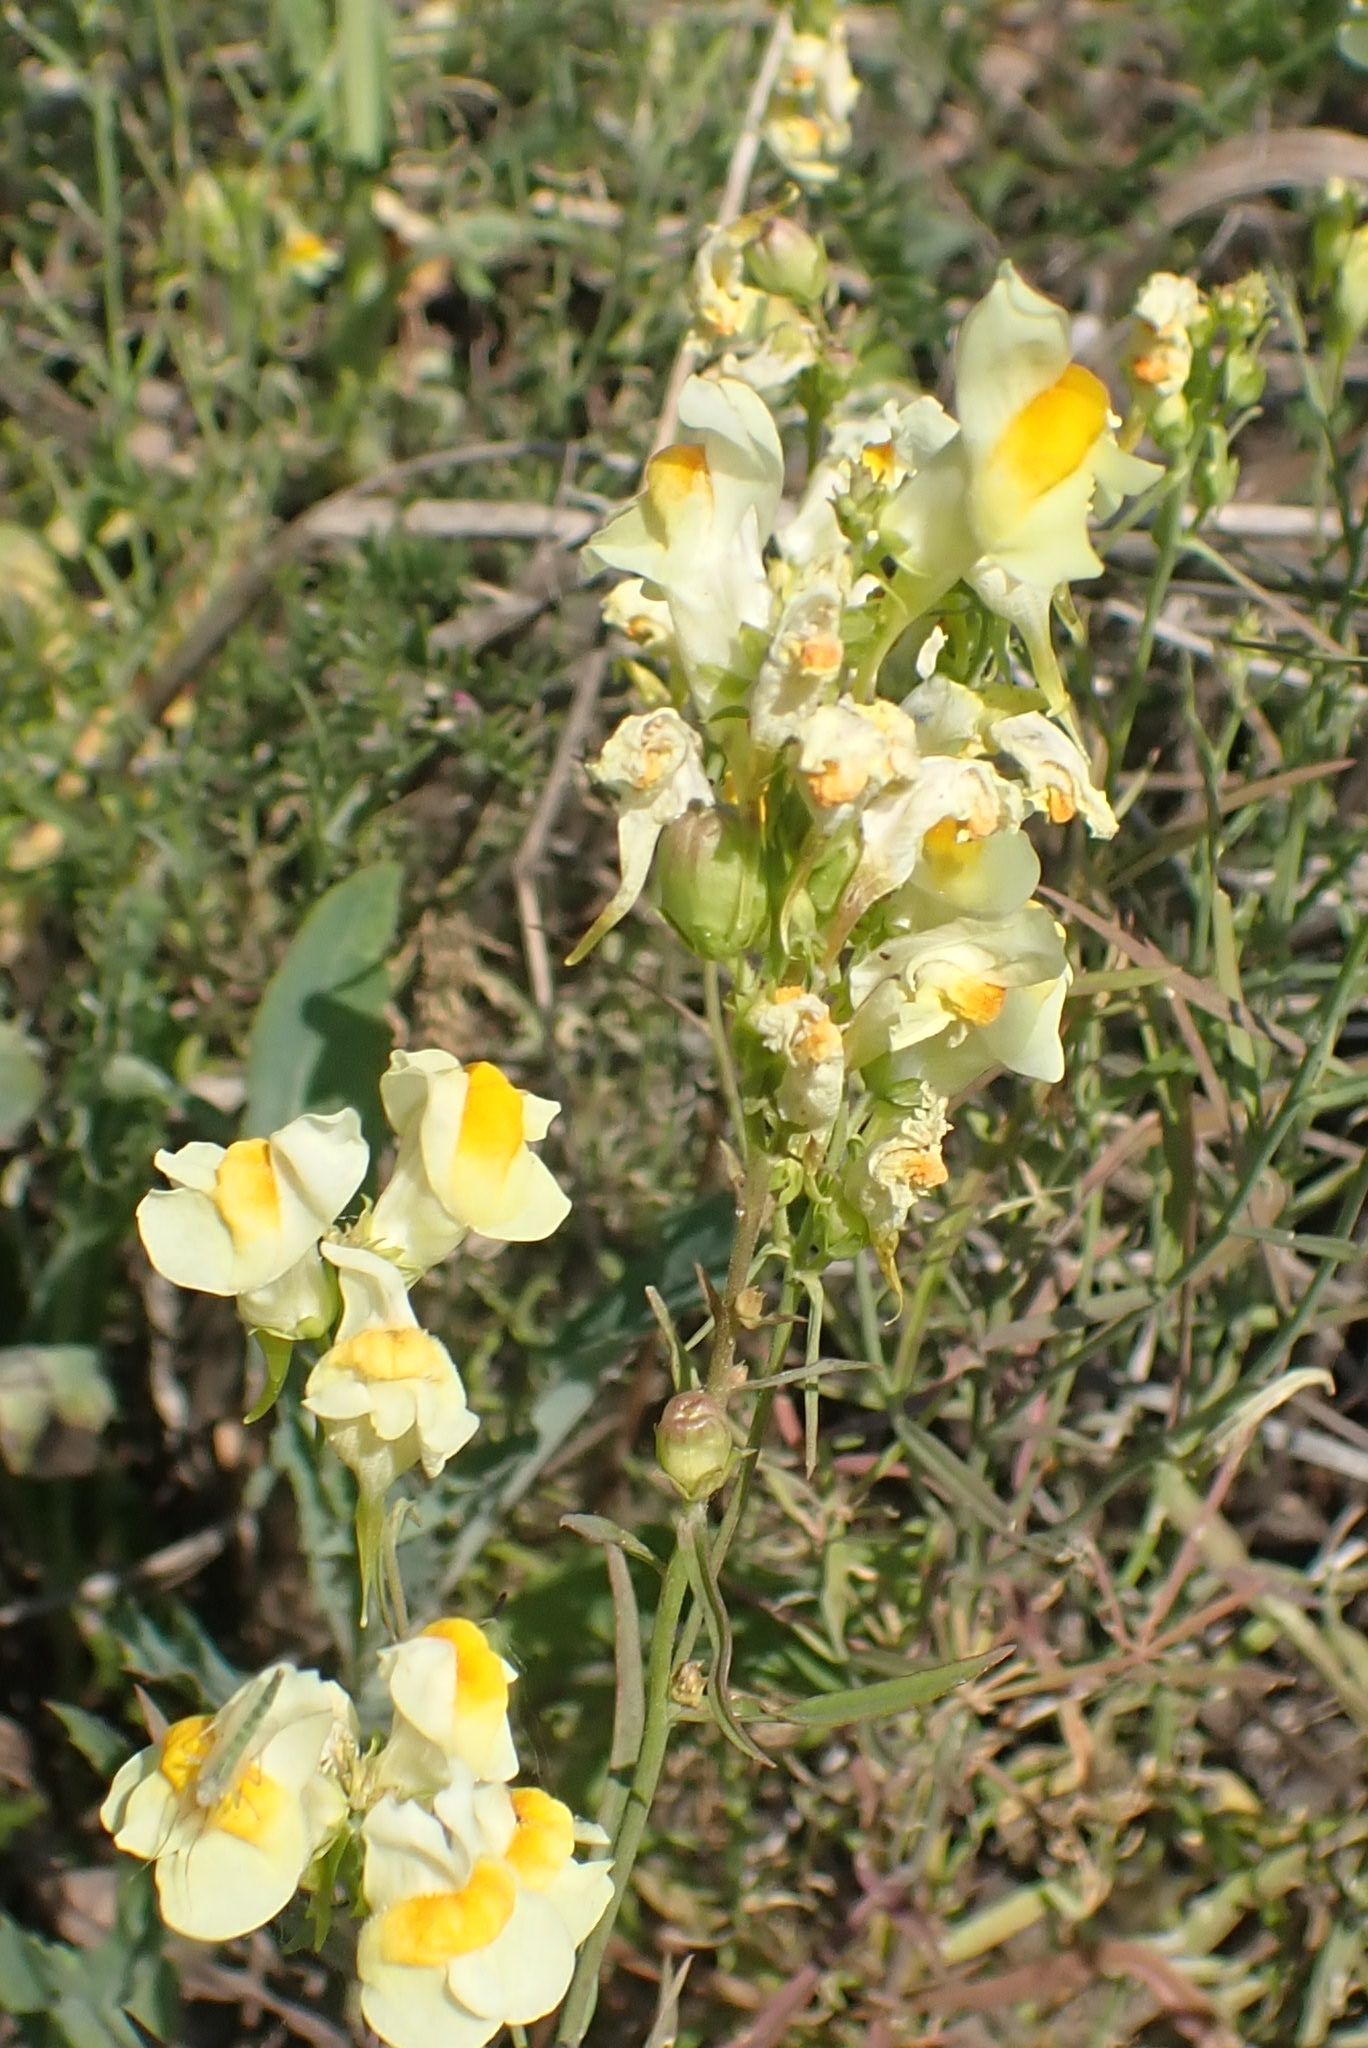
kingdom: Plantae
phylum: Tracheophyta
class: Magnoliopsida
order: Lamiales
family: Plantaginaceae
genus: Linaria
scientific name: Linaria vulgaris
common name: Butter and eggs
